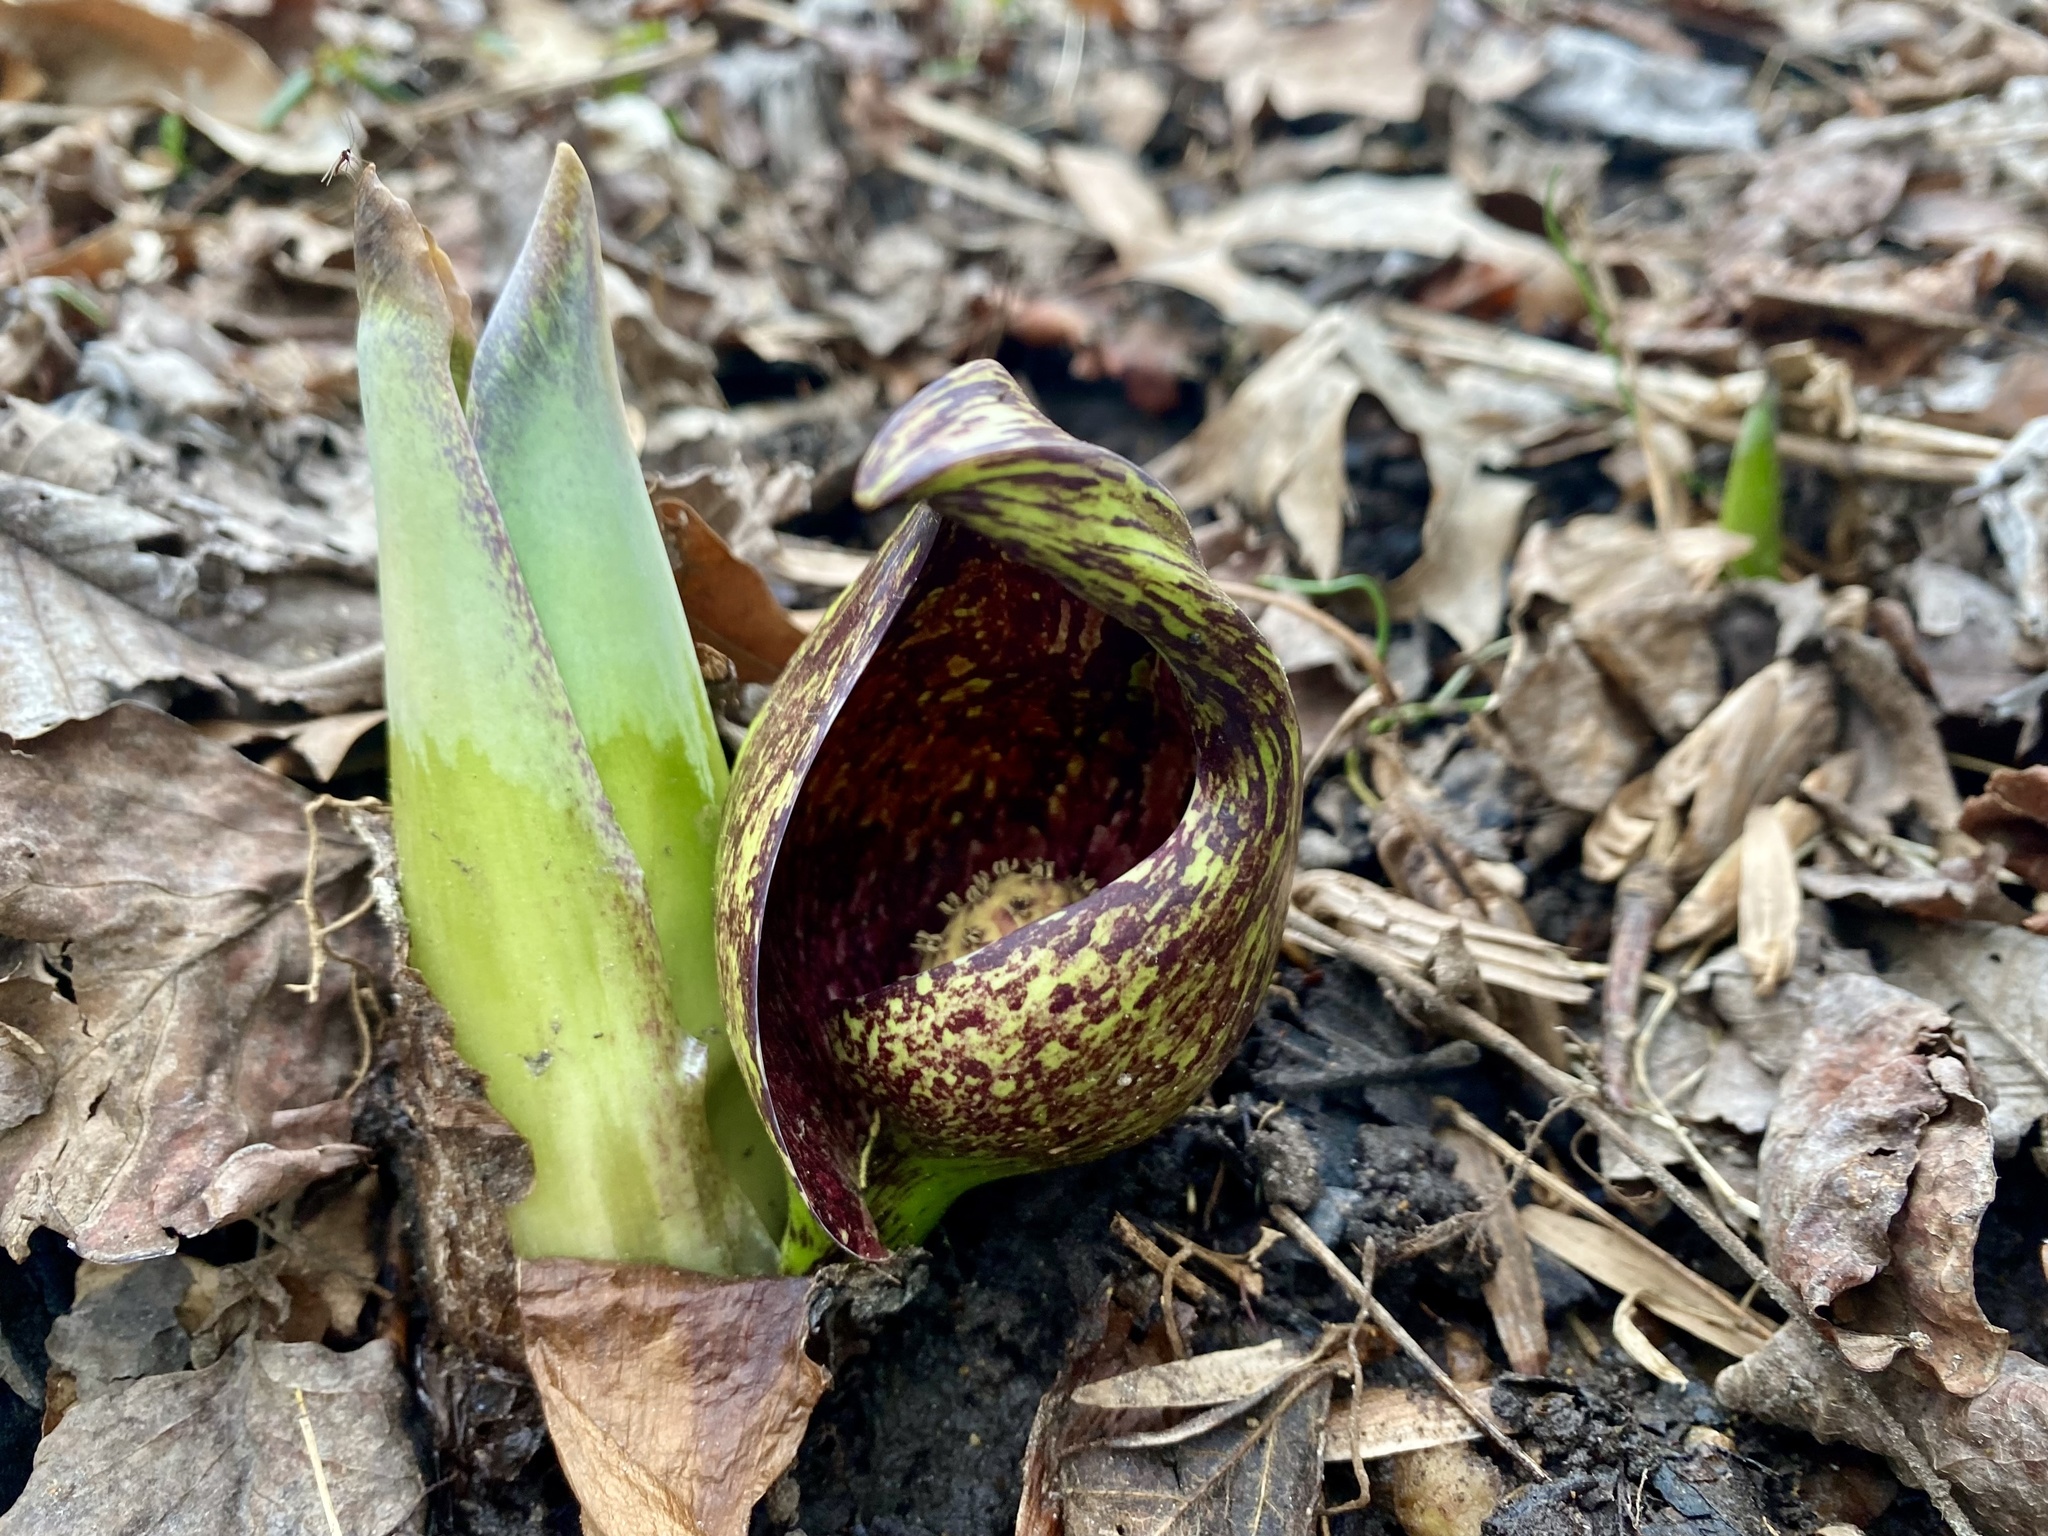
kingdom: Plantae
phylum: Tracheophyta
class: Liliopsida
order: Alismatales
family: Araceae
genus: Symplocarpus
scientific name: Symplocarpus foetidus
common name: Eastern skunk cabbage
